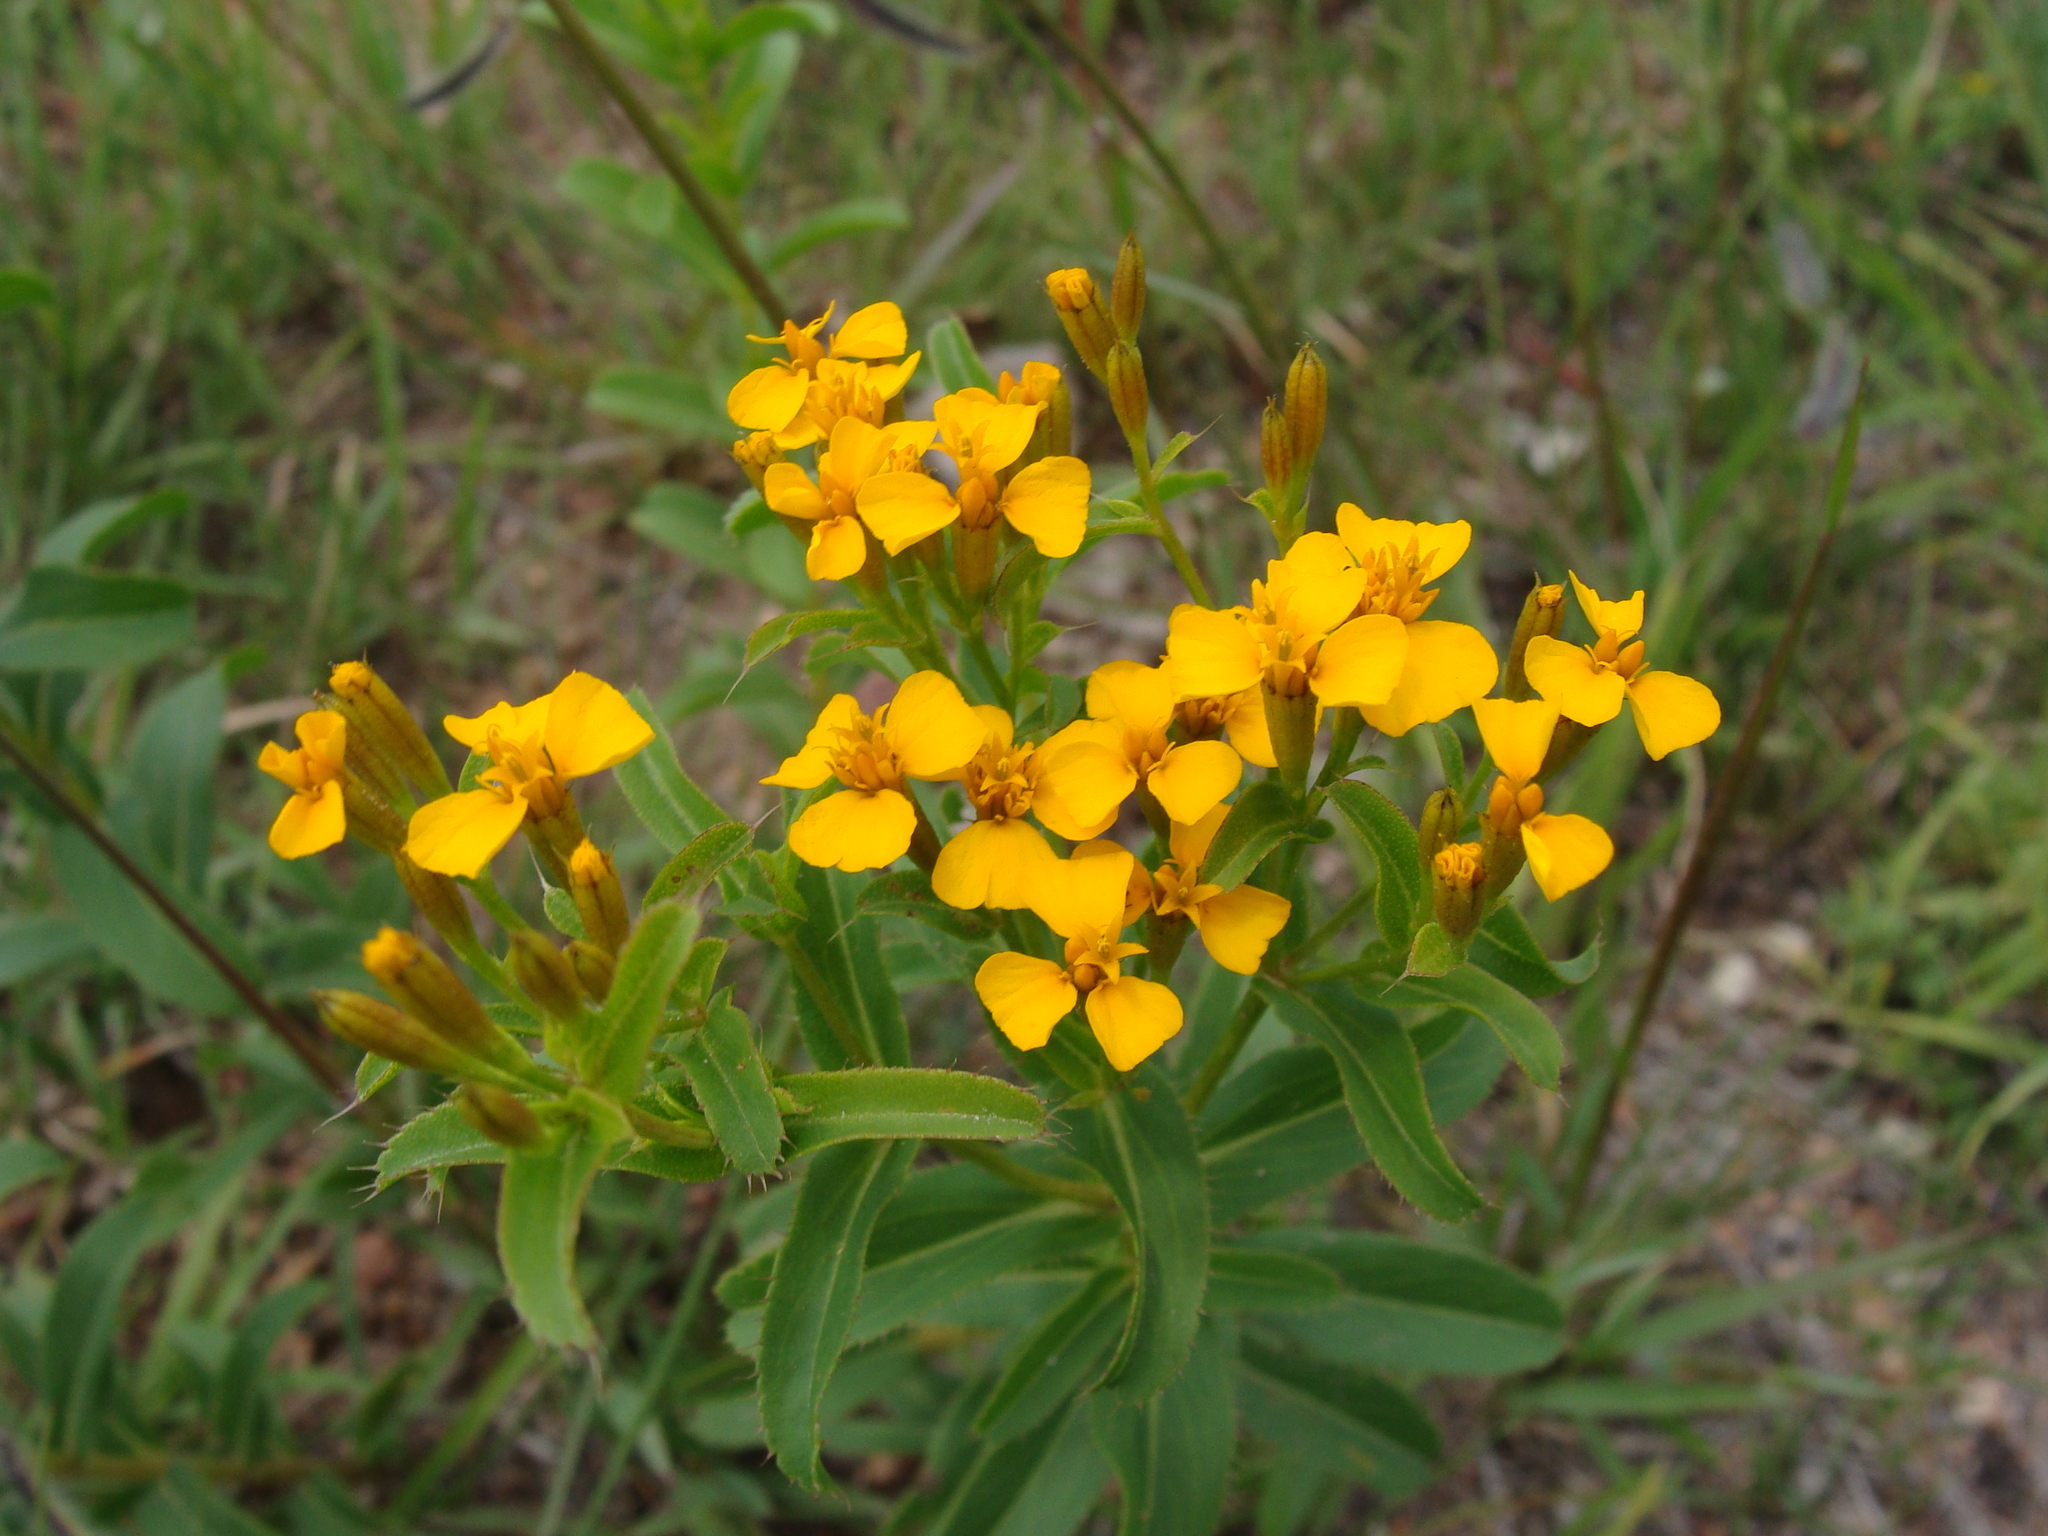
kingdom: Plantae
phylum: Tracheophyta
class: Magnoliopsida
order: Asterales
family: Asteraceae
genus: Tagetes
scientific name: Tagetes lucida
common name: Sweetscented marigold
